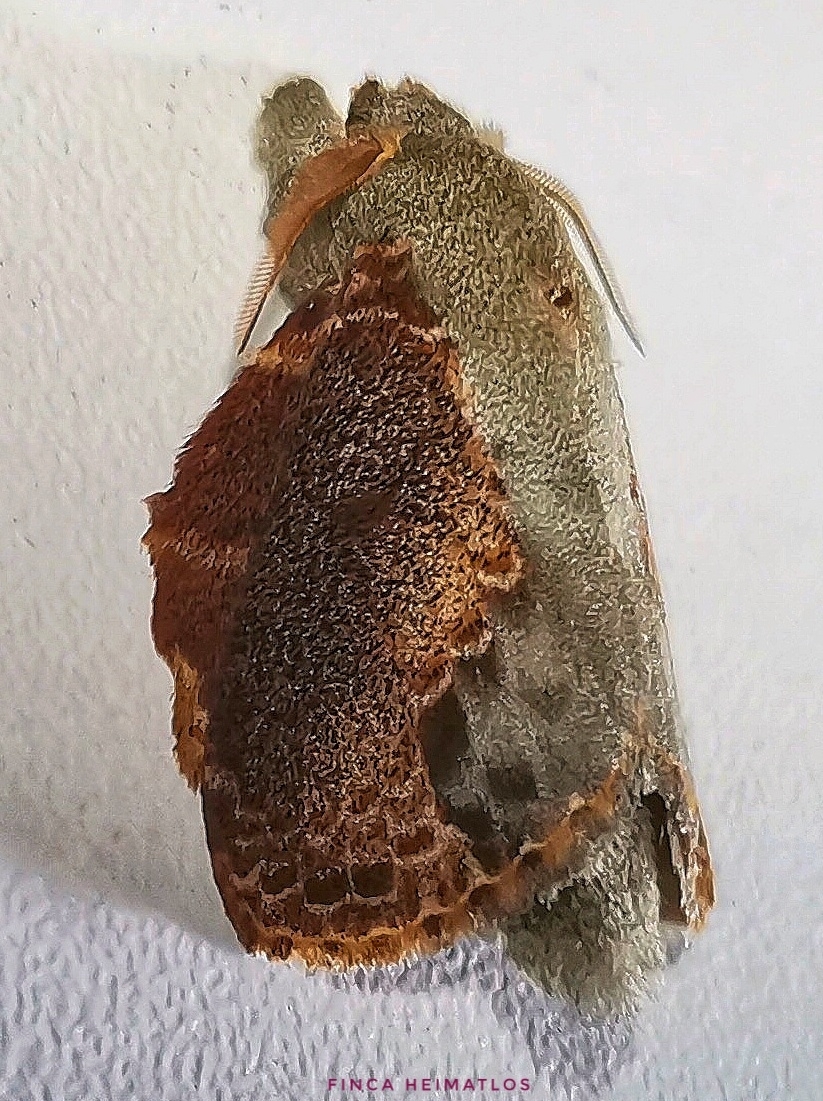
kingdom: Animalia
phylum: Arthropoda
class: Insecta
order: Lepidoptera
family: Lasiocampidae
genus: Euglyphis
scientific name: Euglyphis lankesteri
